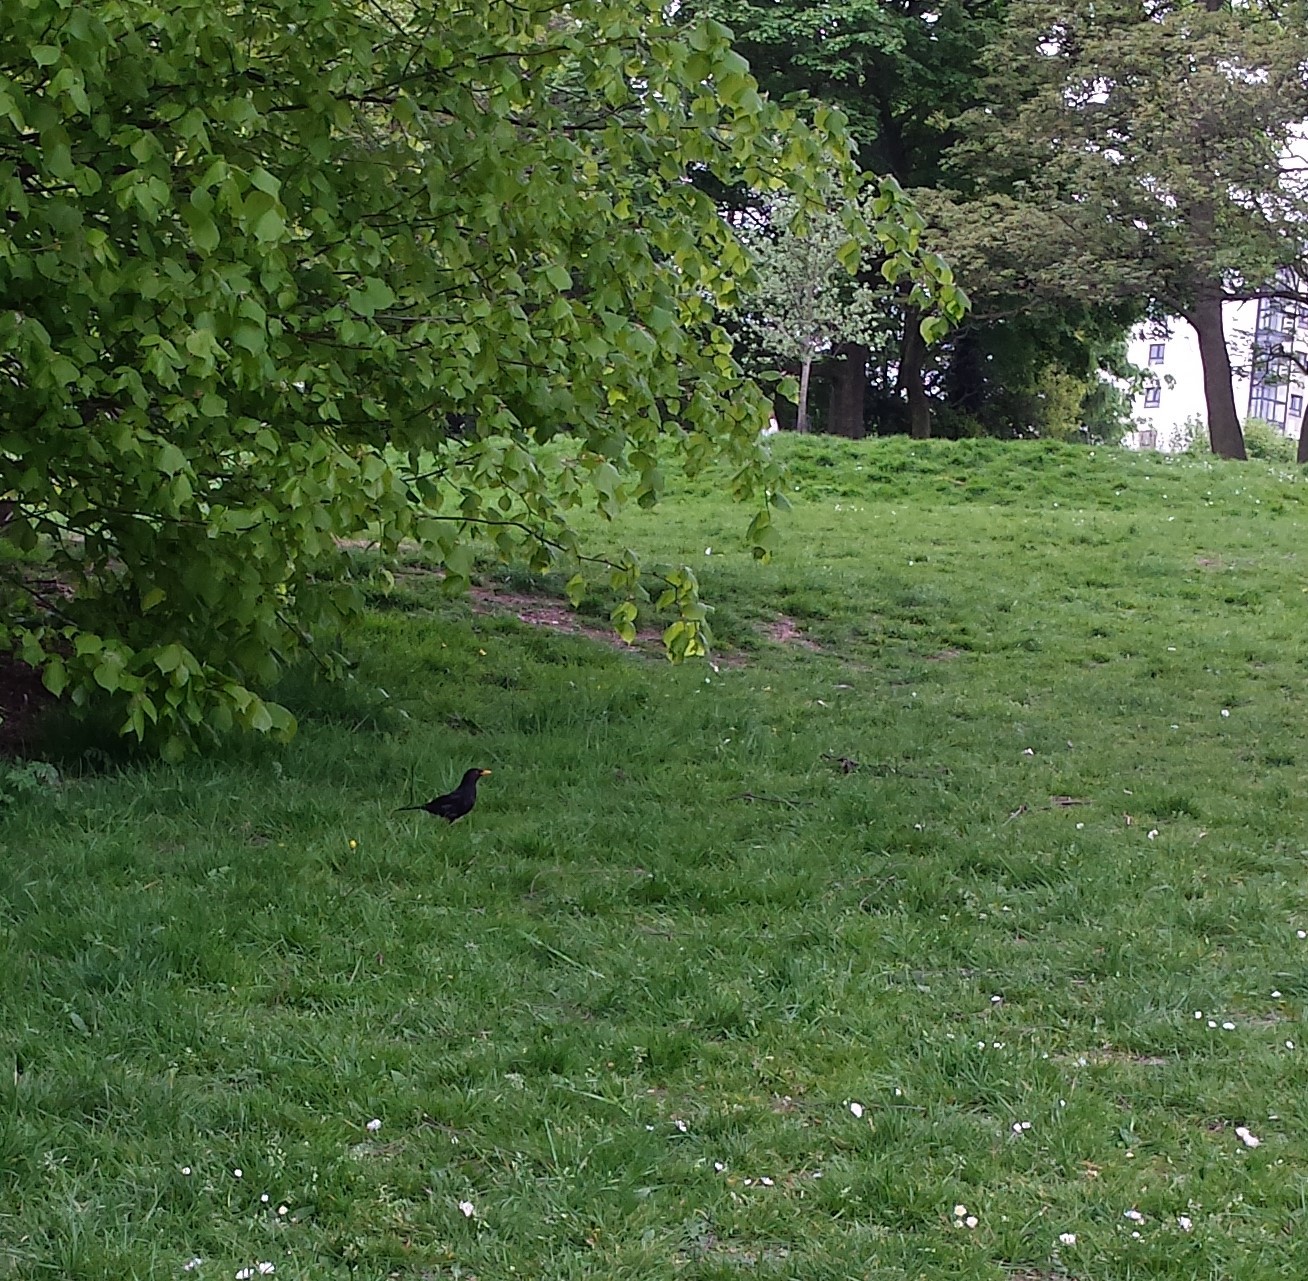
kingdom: Animalia
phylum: Chordata
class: Aves
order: Passeriformes
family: Turdidae
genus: Turdus
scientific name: Turdus merula
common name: Common blackbird
